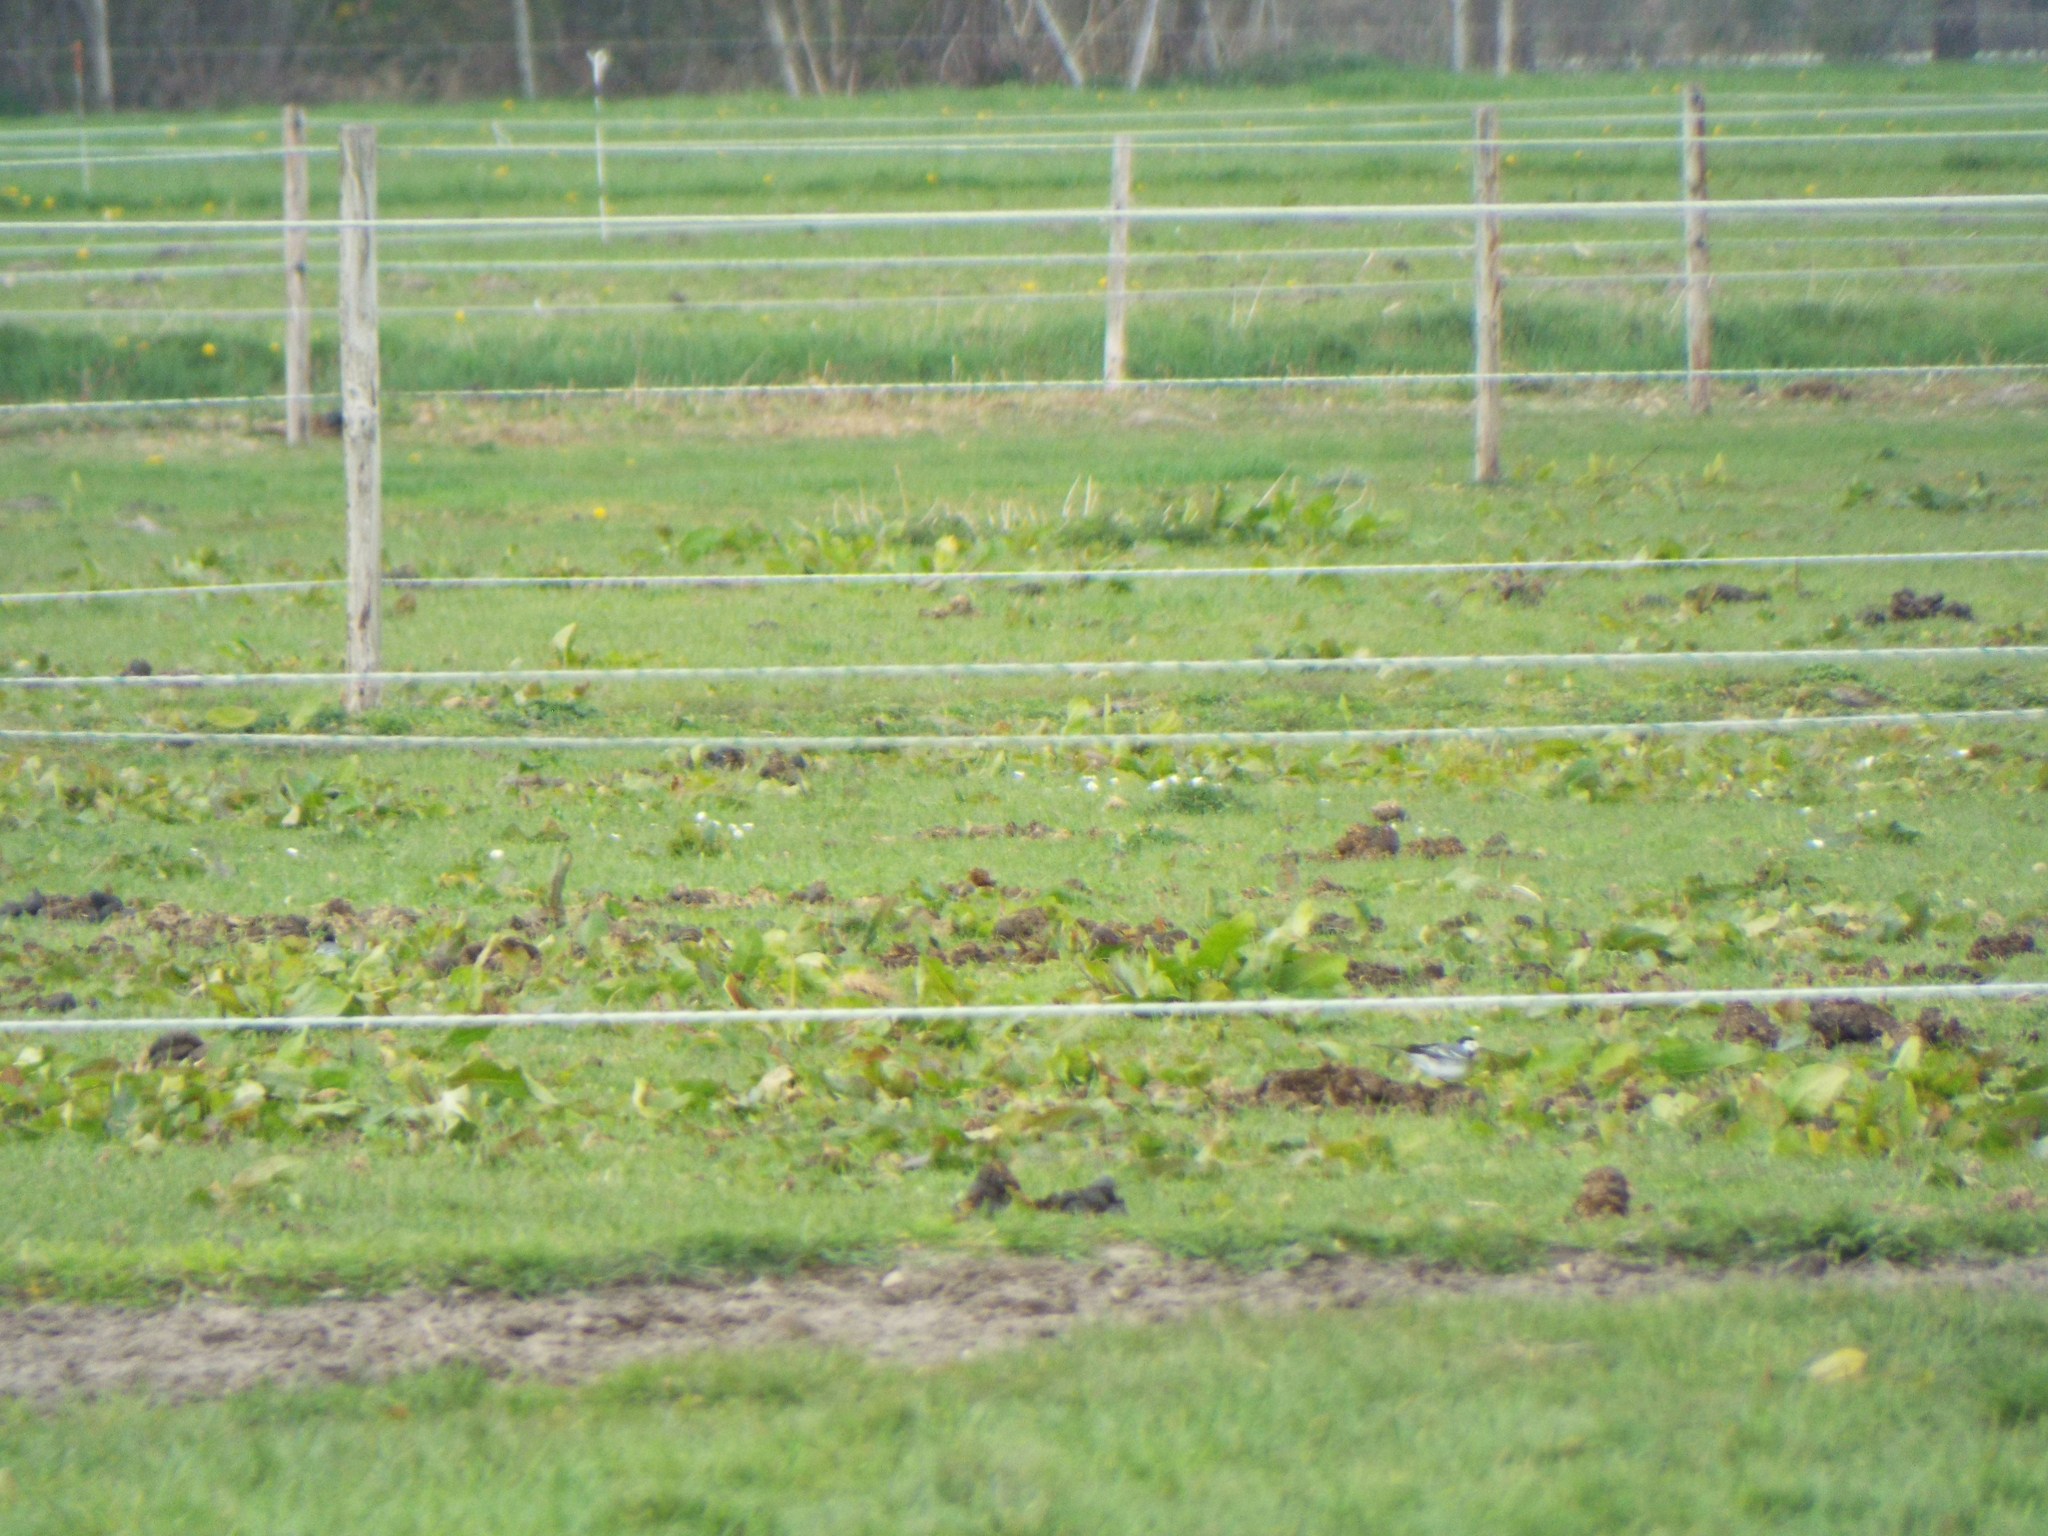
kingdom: Animalia
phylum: Chordata
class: Aves
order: Passeriformes
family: Motacillidae
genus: Motacilla
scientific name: Motacilla alba
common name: White wagtail
